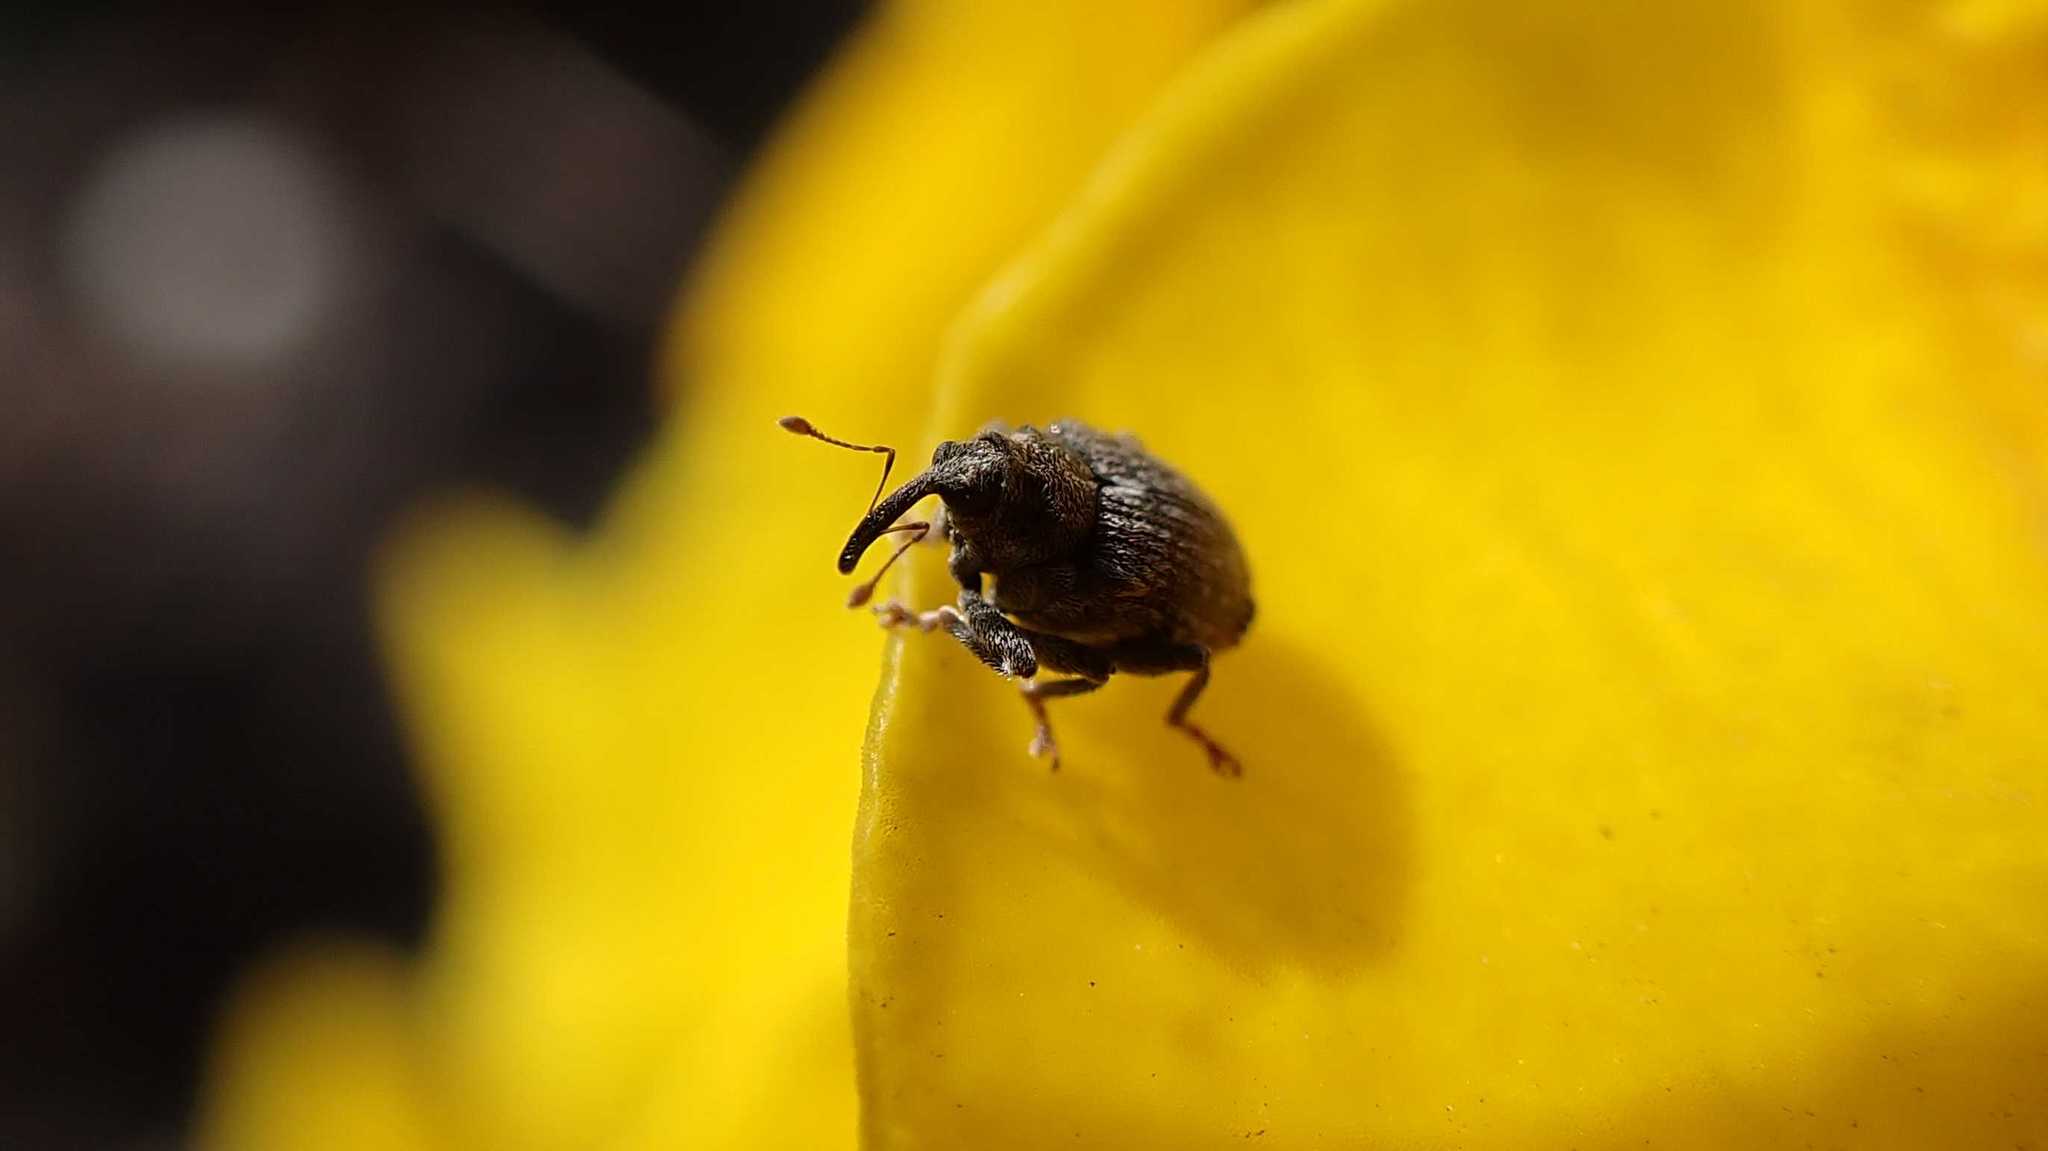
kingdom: Animalia
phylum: Arthropoda
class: Insecta
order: Coleoptera
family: Curculionidae
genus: Ceutorhynchus
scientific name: Ceutorhynchus pallidactylus
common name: Cabbage stem weavil
